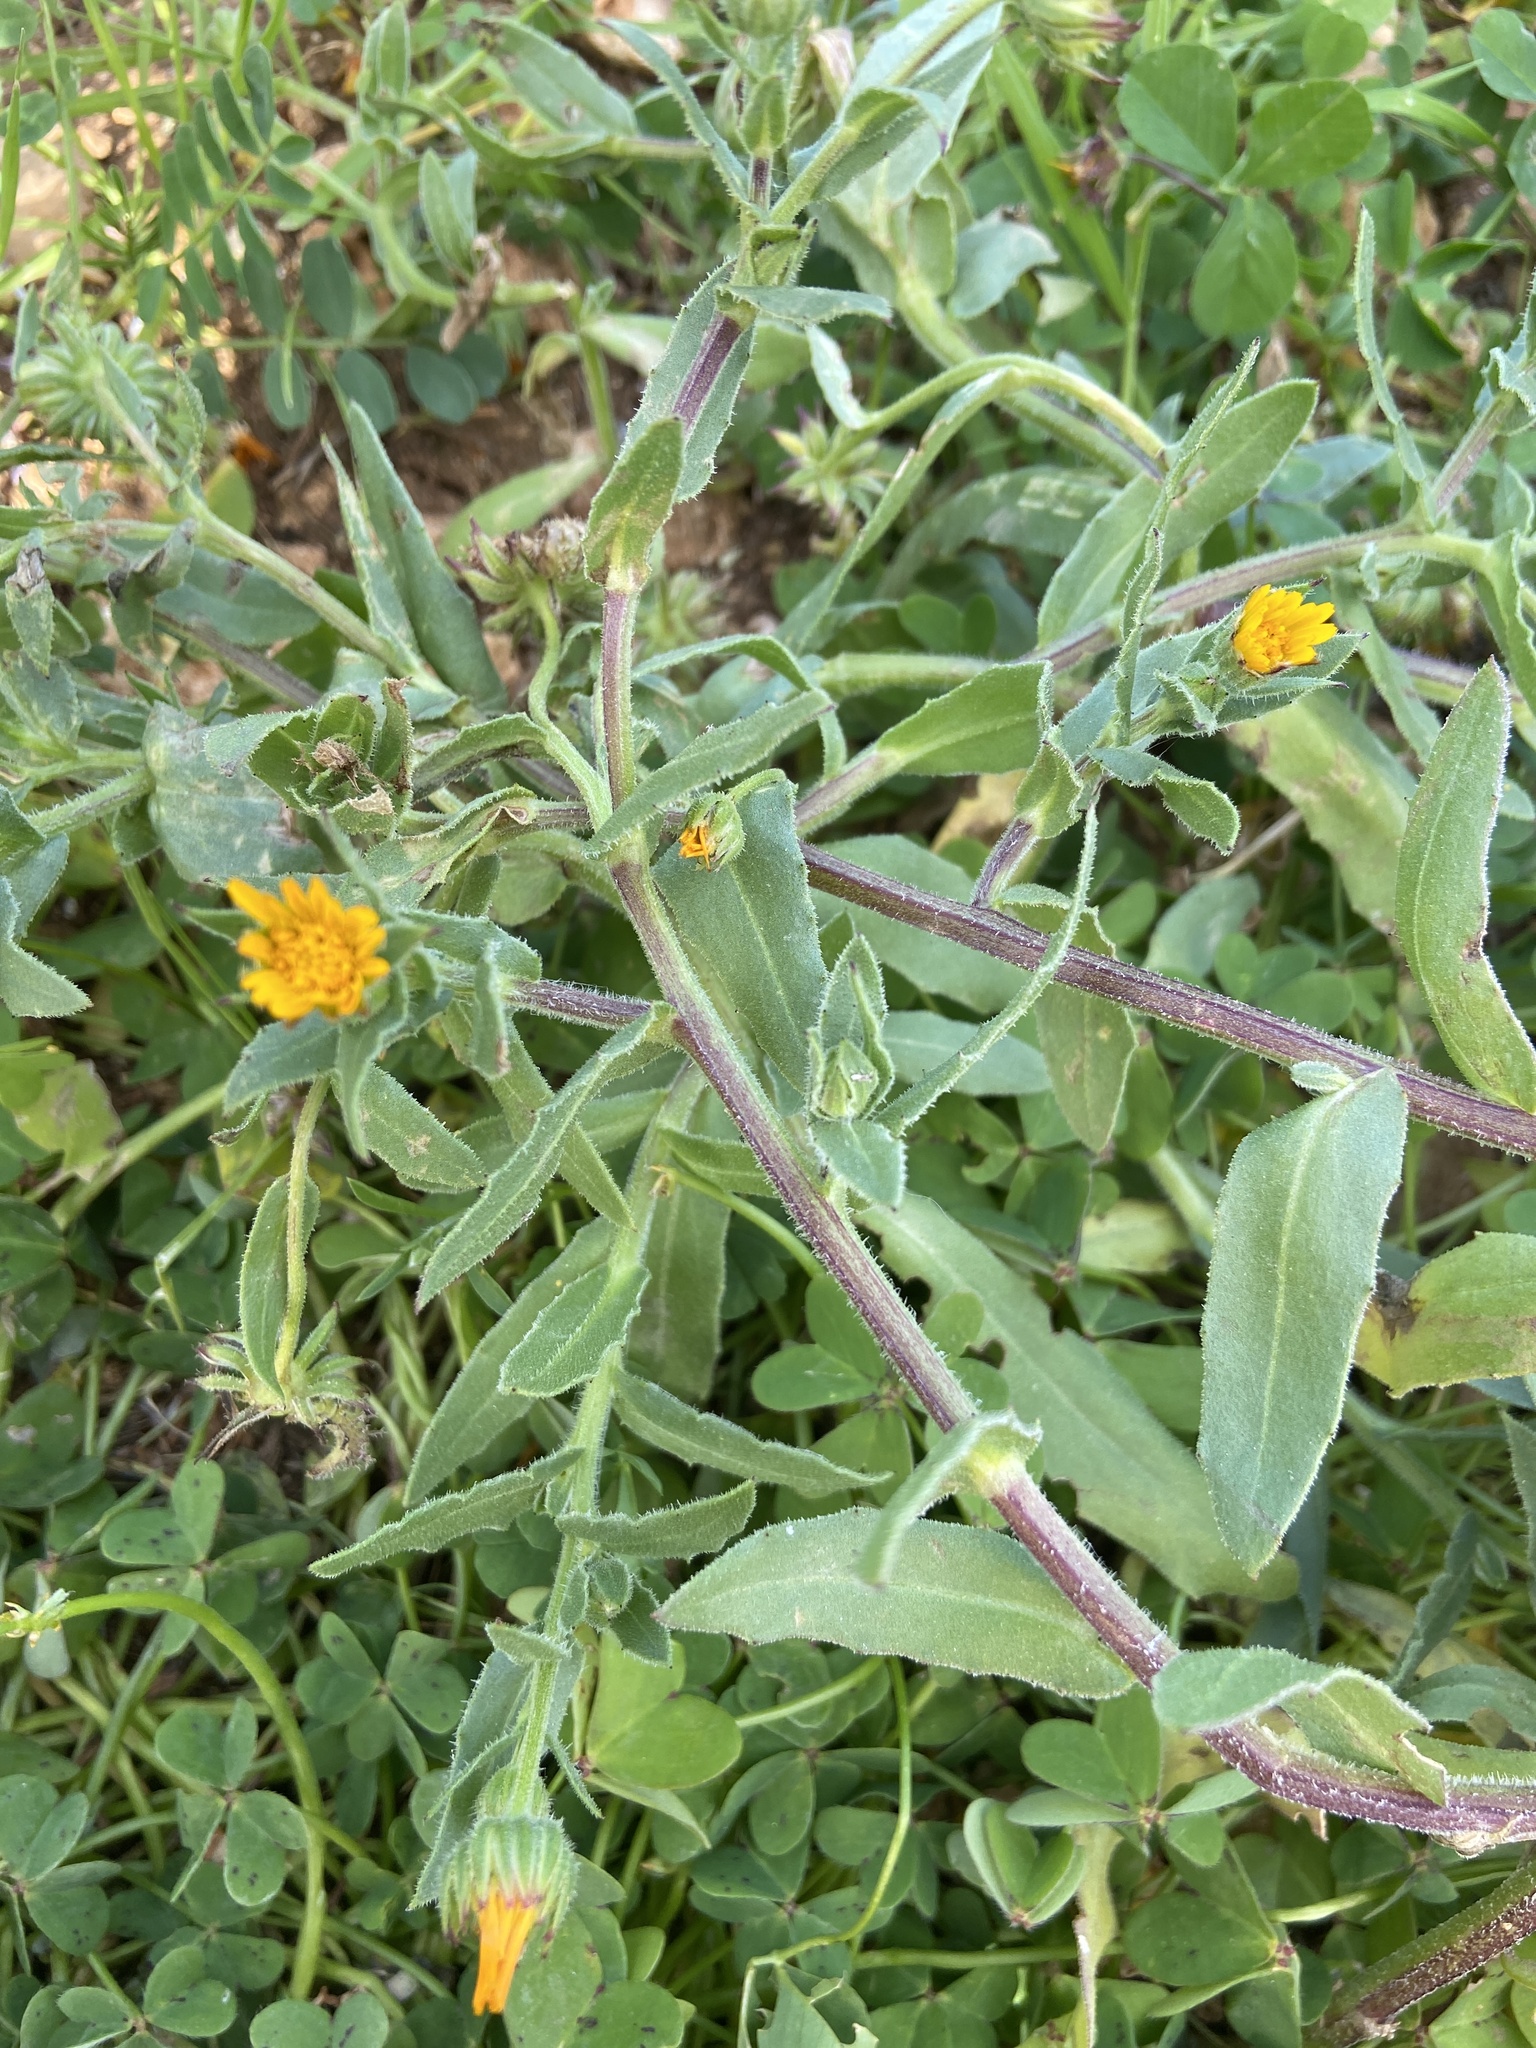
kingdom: Plantae
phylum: Tracheophyta
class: Magnoliopsida
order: Asterales
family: Asteraceae
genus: Calendula
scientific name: Calendula arvensis
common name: Field marigold
